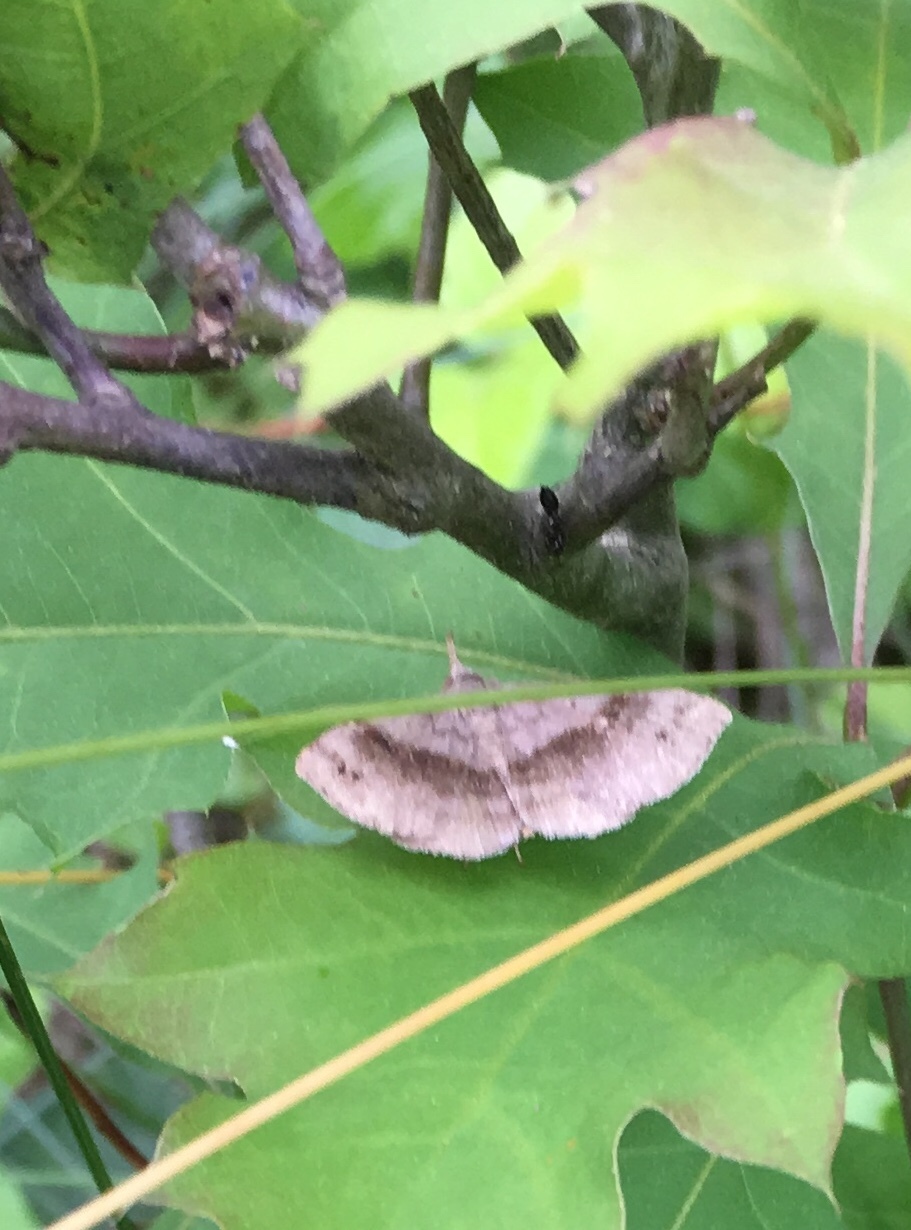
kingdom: Animalia
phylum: Arthropoda
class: Insecta
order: Lepidoptera
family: Erebidae
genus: Spargaloma
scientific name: Spargaloma sexpunctata
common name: Six-spotted gray
